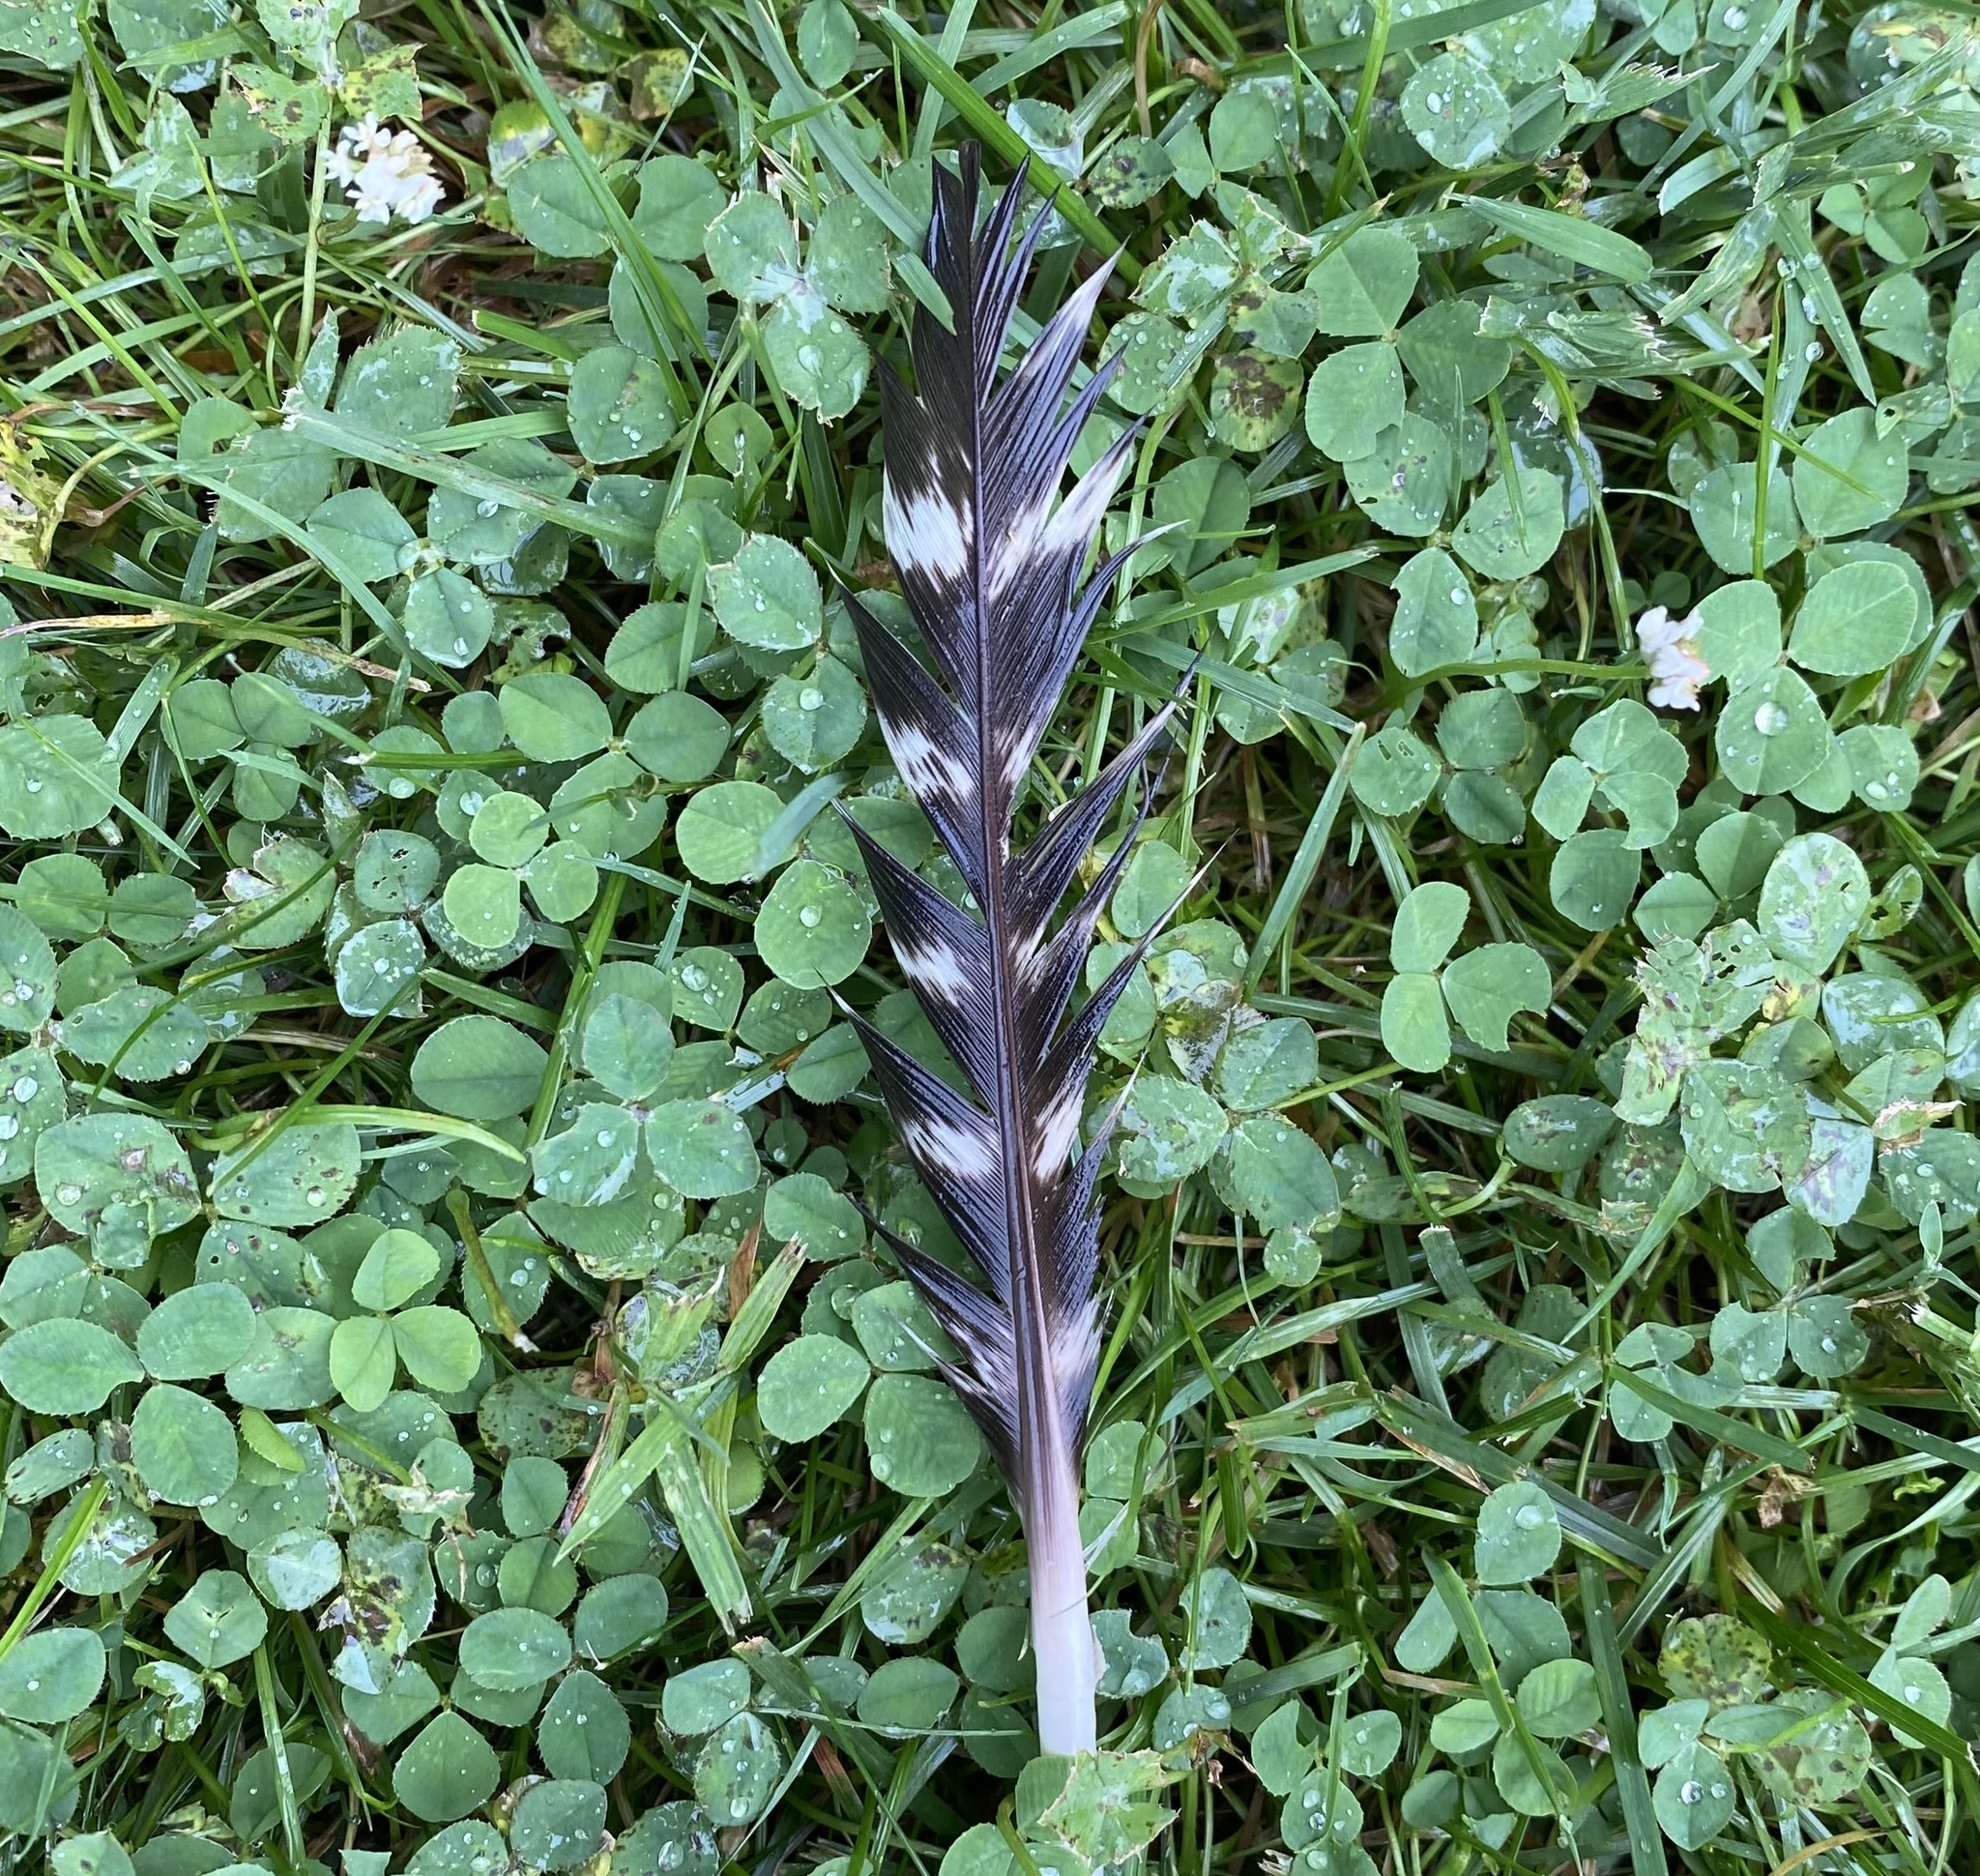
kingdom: Animalia
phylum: Chordata
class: Aves
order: Galliformes
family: Phasianidae
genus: Meleagris
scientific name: Meleagris gallopavo
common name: Wild turkey
